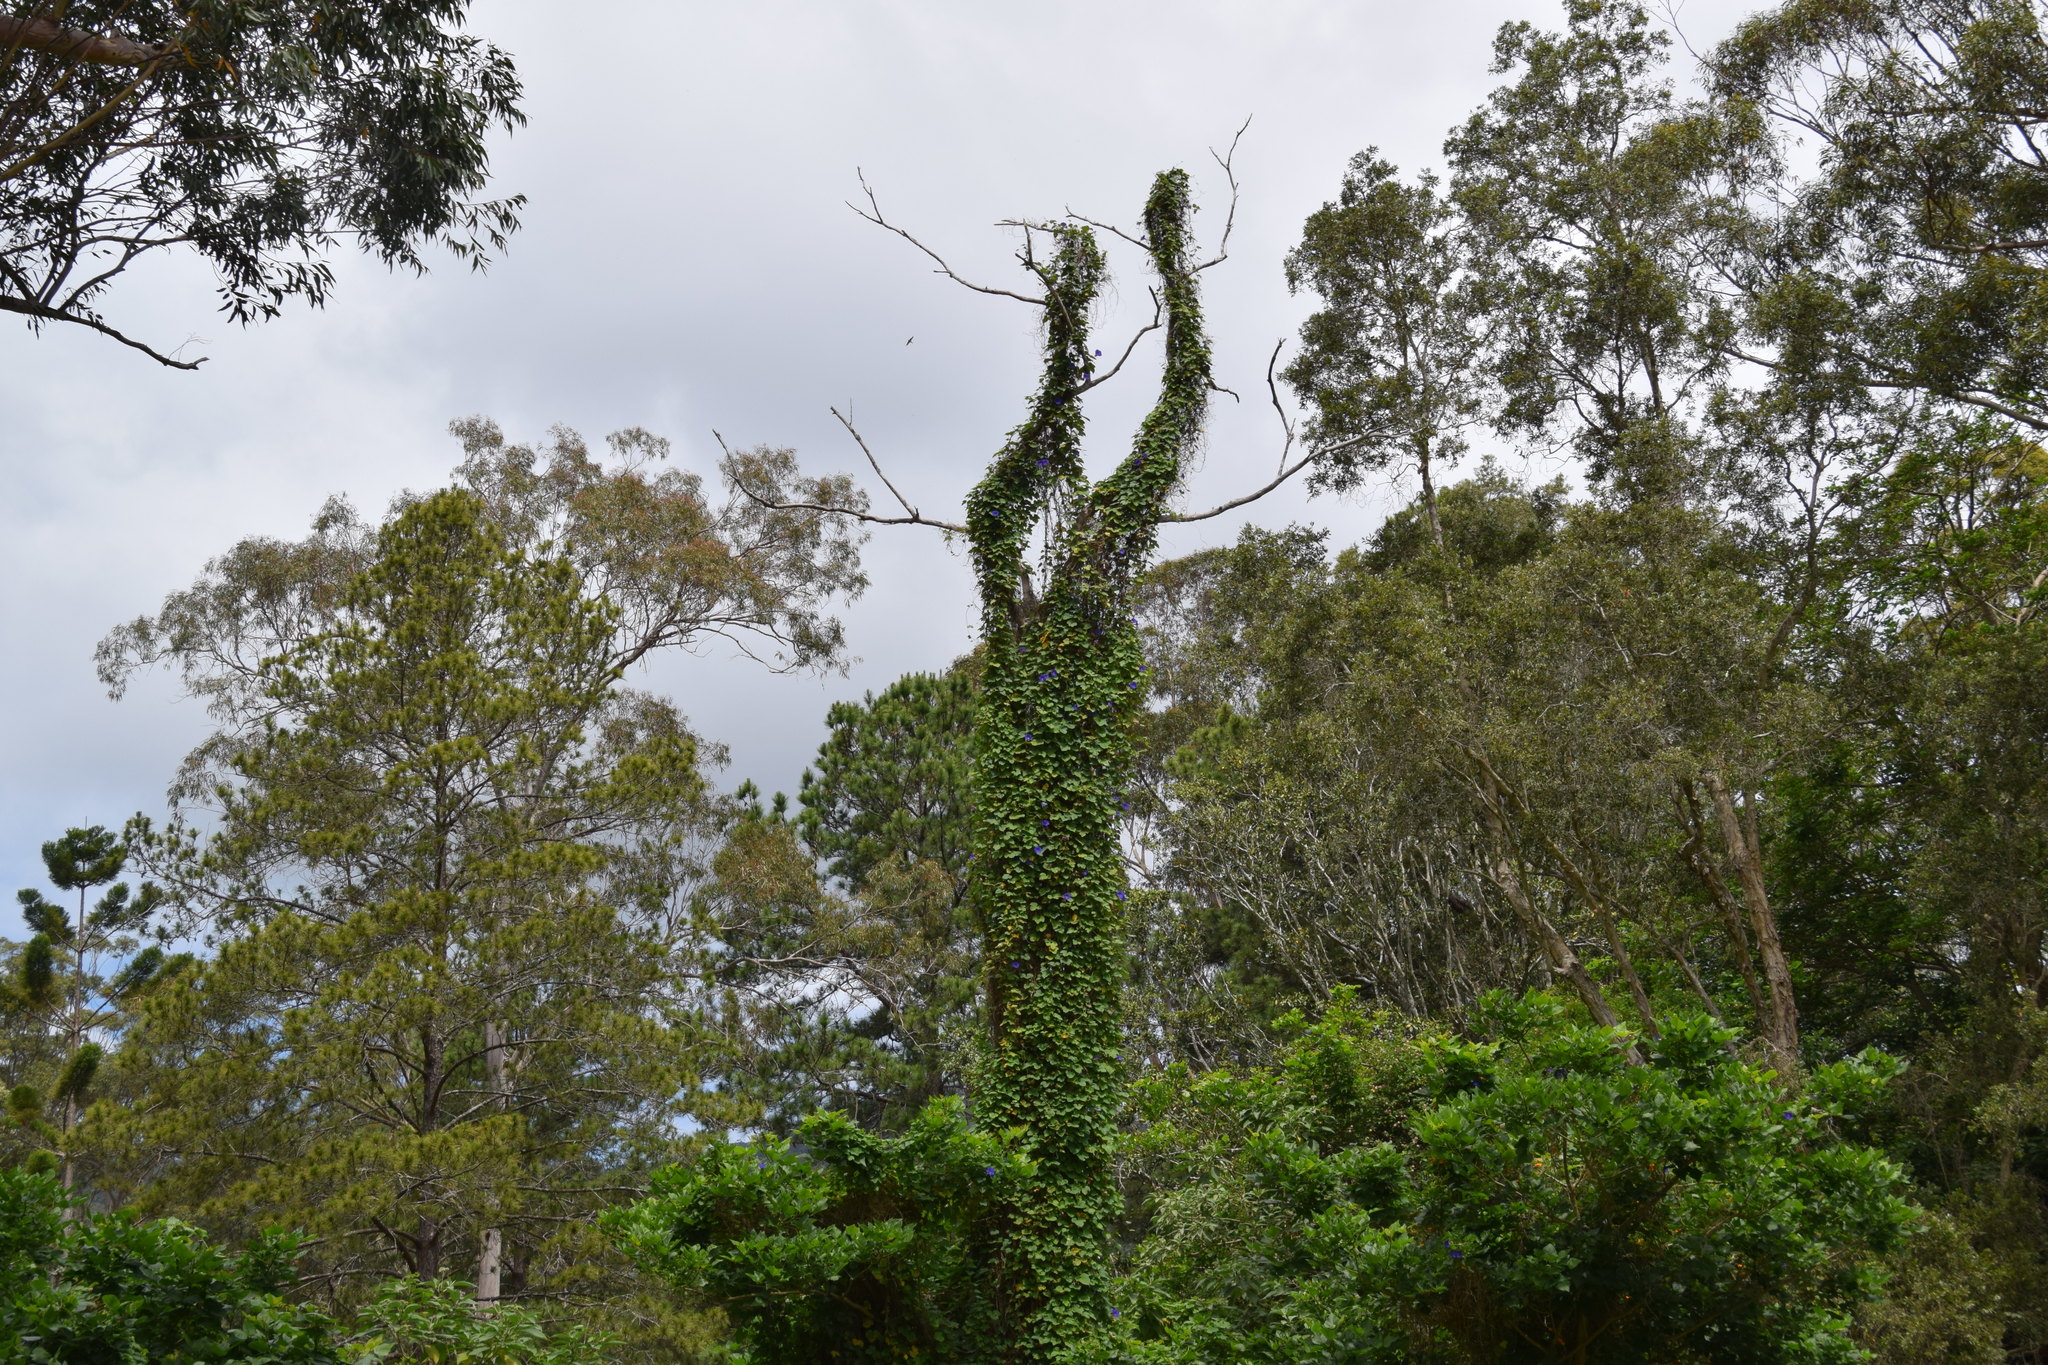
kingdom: Plantae
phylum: Tracheophyta
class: Magnoliopsida
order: Solanales
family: Convolvulaceae
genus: Ipomoea
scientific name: Ipomoea indica
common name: Blue dawnflower
